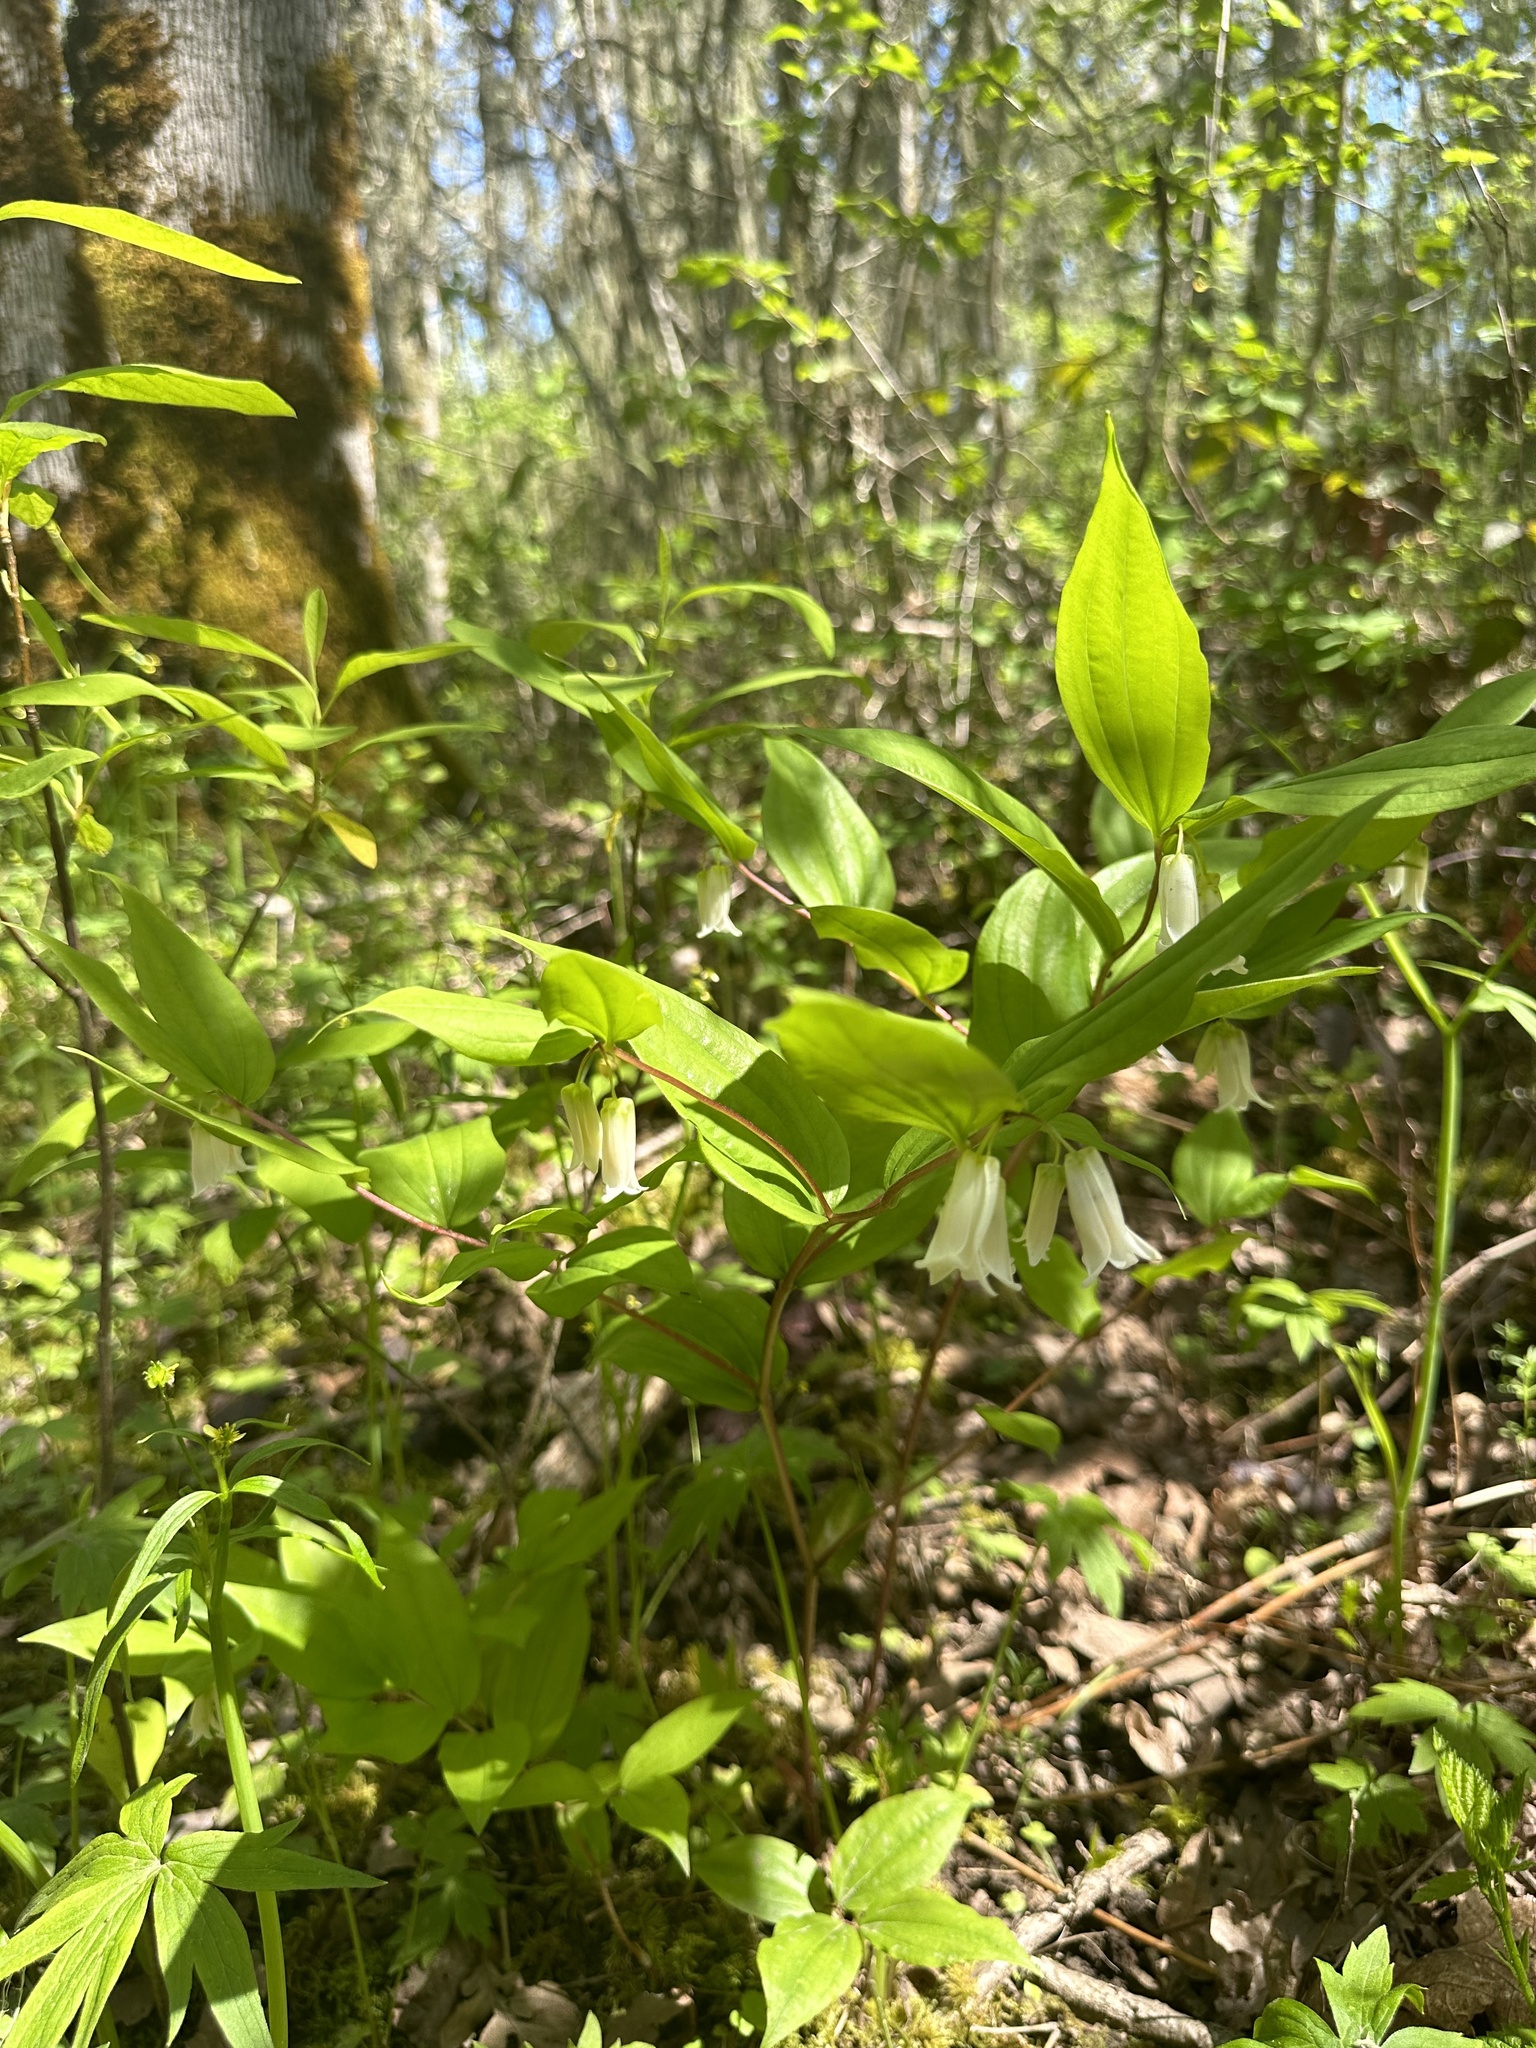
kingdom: Plantae
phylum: Tracheophyta
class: Liliopsida
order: Liliales
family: Liliaceae
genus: Prosartes
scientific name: Prosartes smithii
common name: Fairy-lantern
